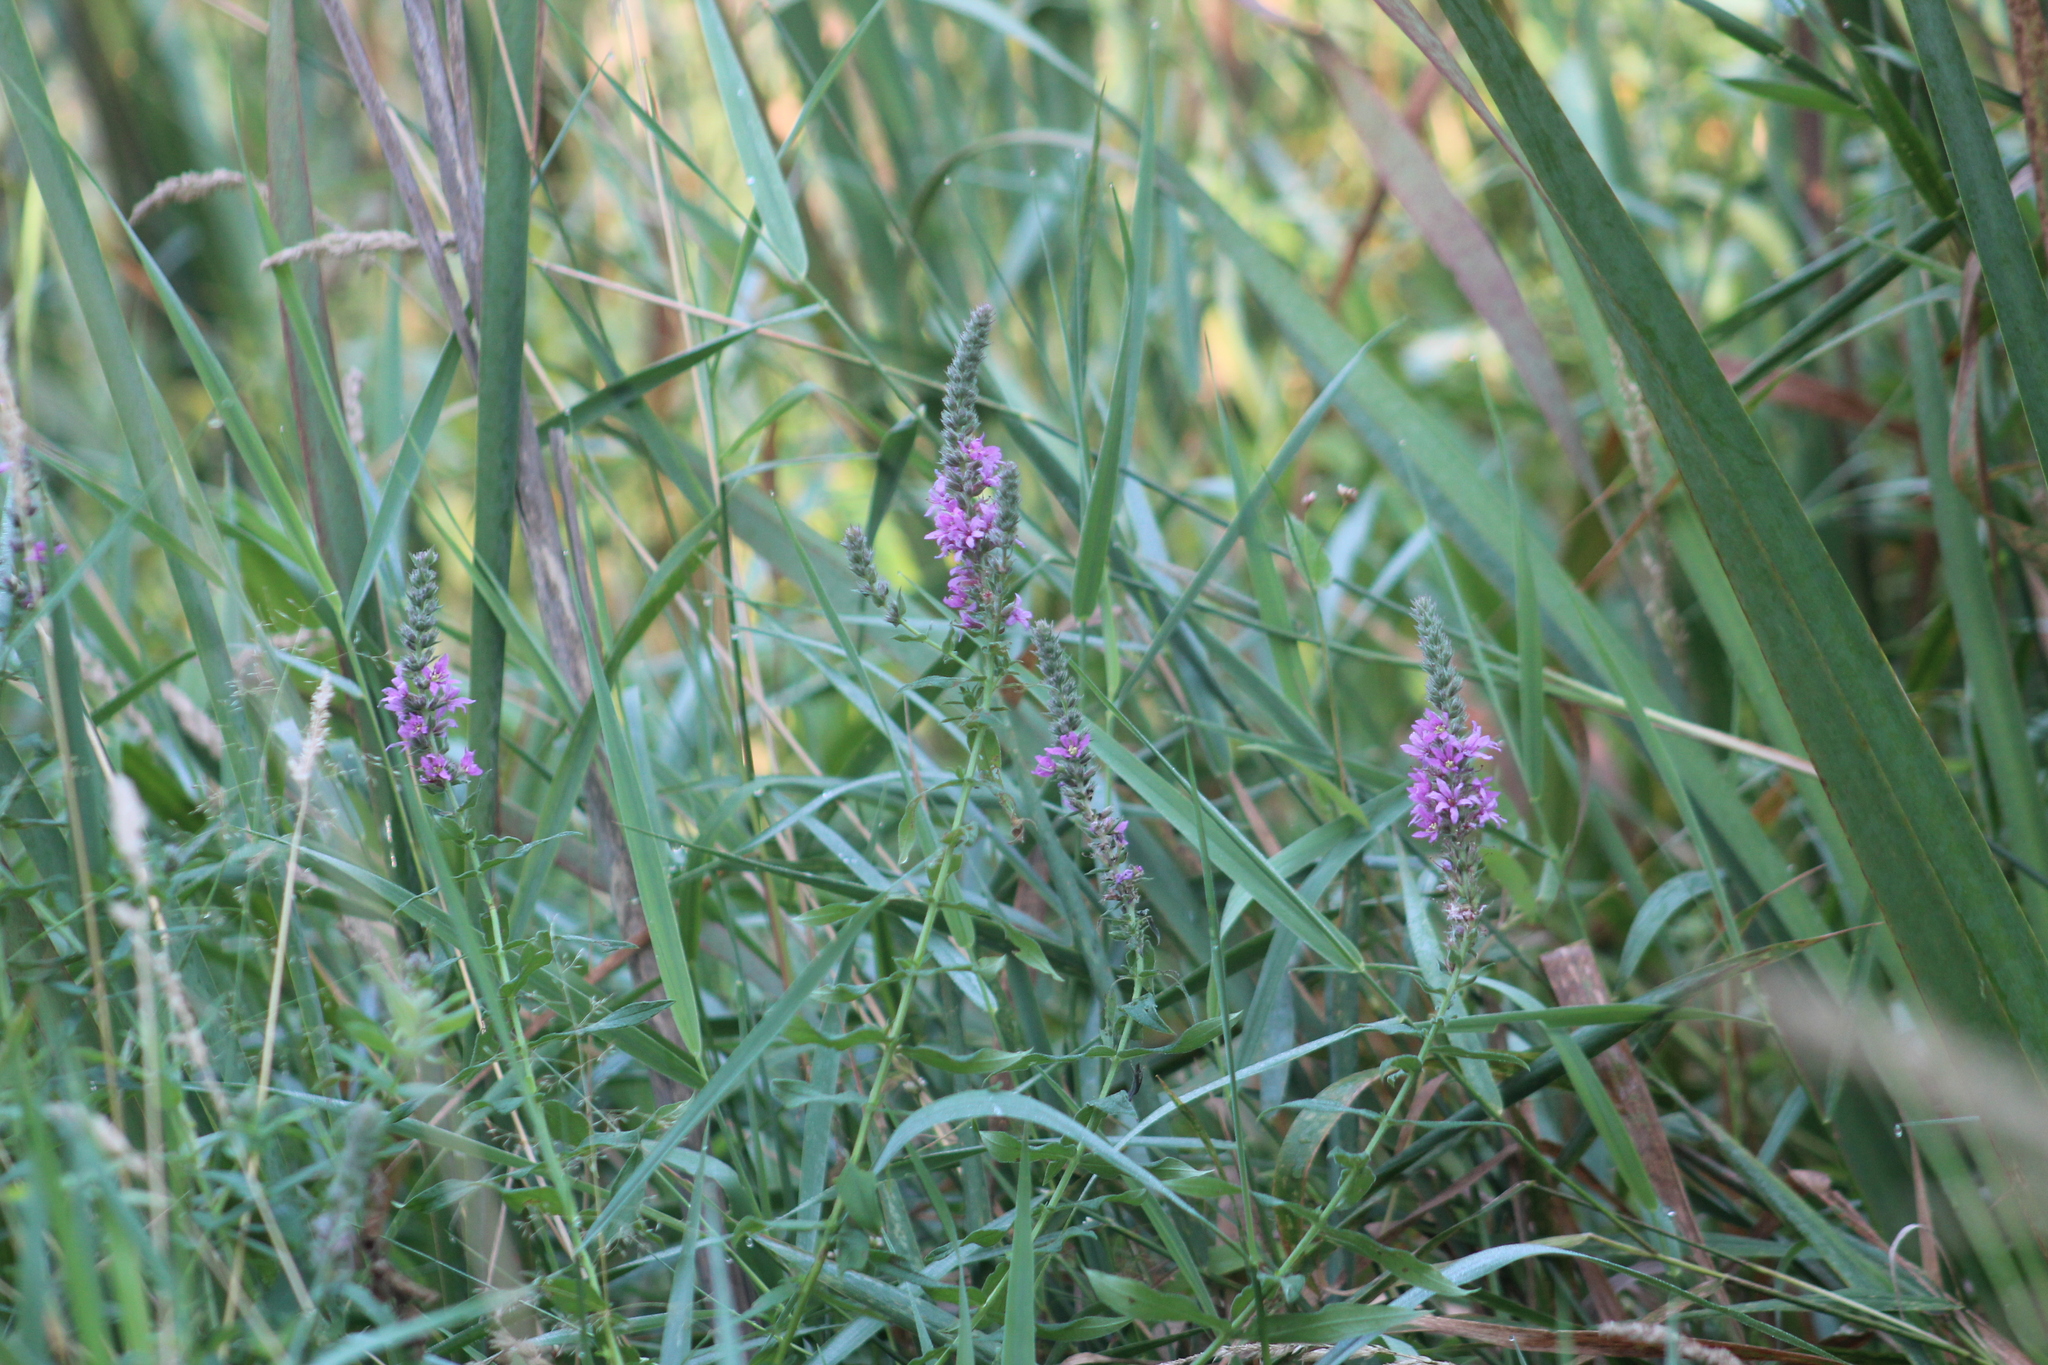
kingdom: Plantae
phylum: Tracheophyta
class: Magnoliopsida
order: Myrtales
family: Lythraceae
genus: Lythrum
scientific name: Lythrum salicaria
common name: Purple loosestrife
